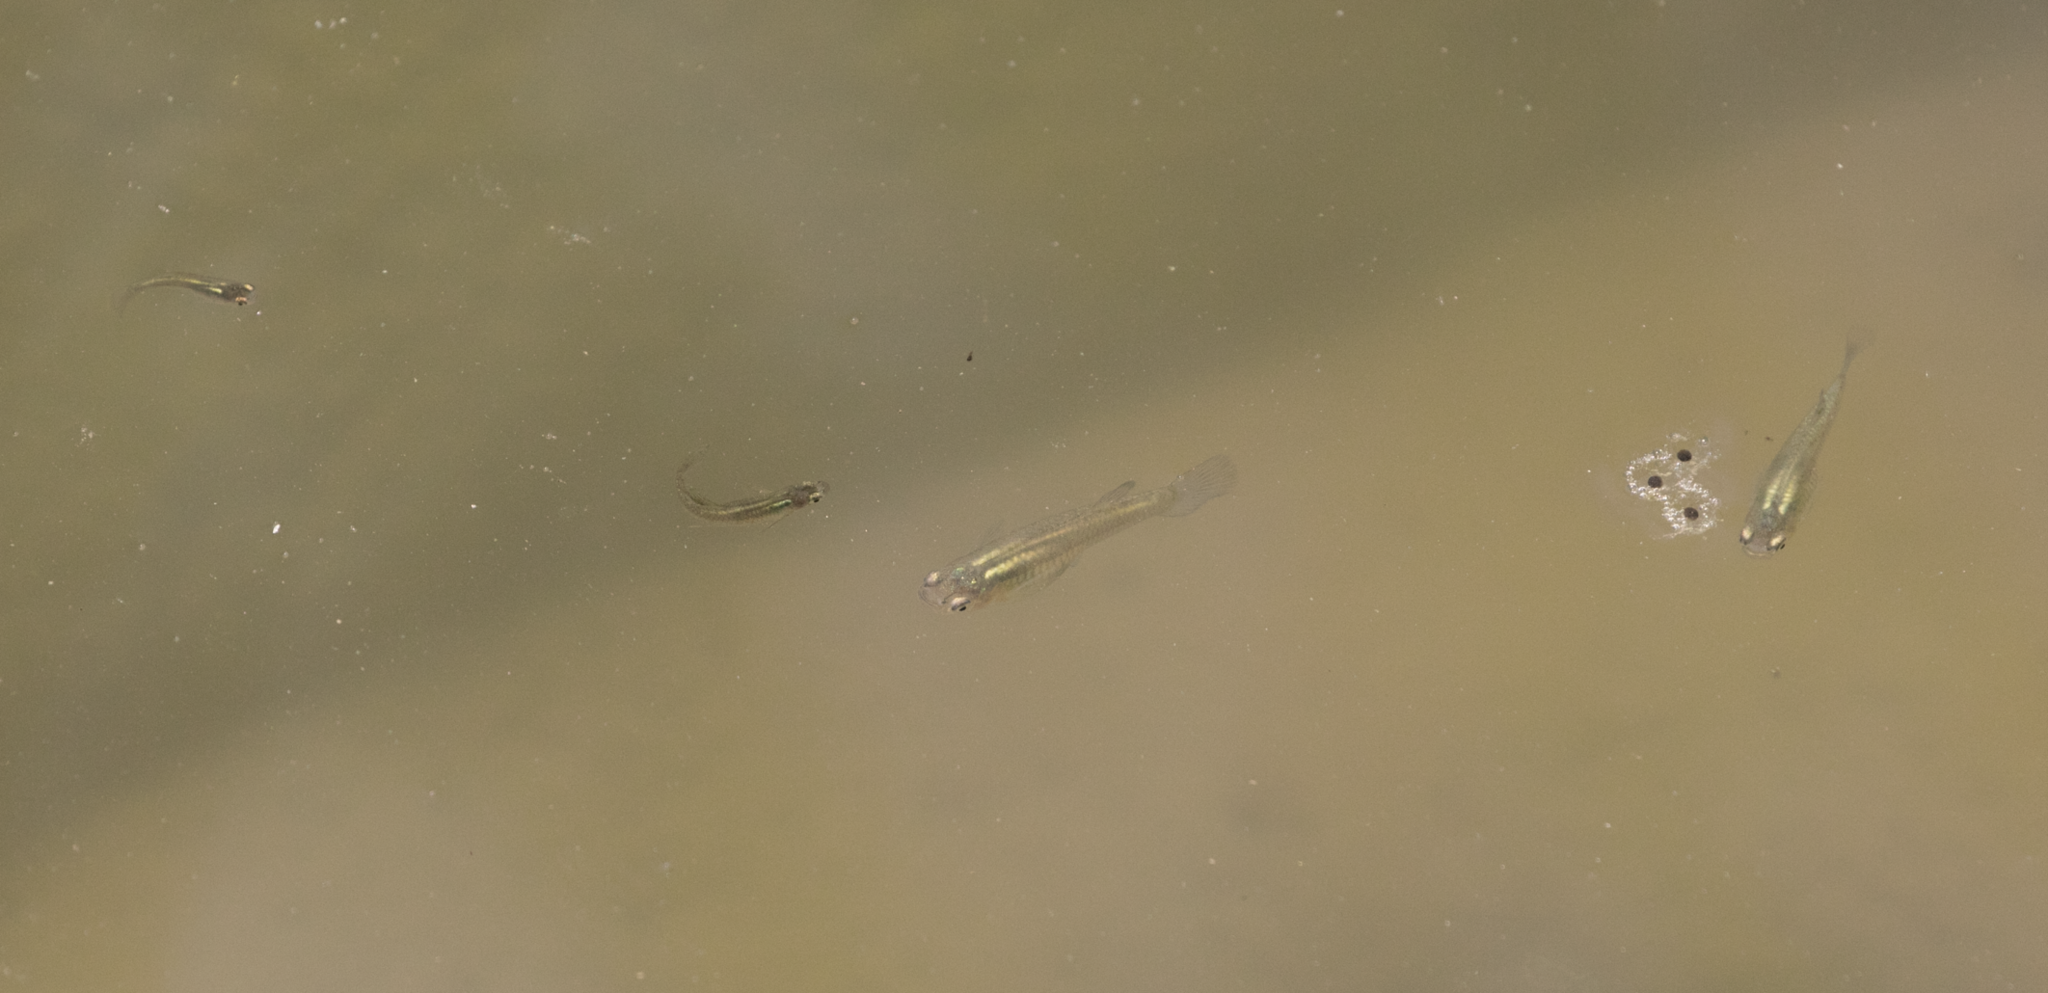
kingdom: Animalia
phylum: Chordata
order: Cyprinodontiformes
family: Poeciliidae
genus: Gambusia
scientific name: Gambusia holbrooki
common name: Eastern mosquitofish
